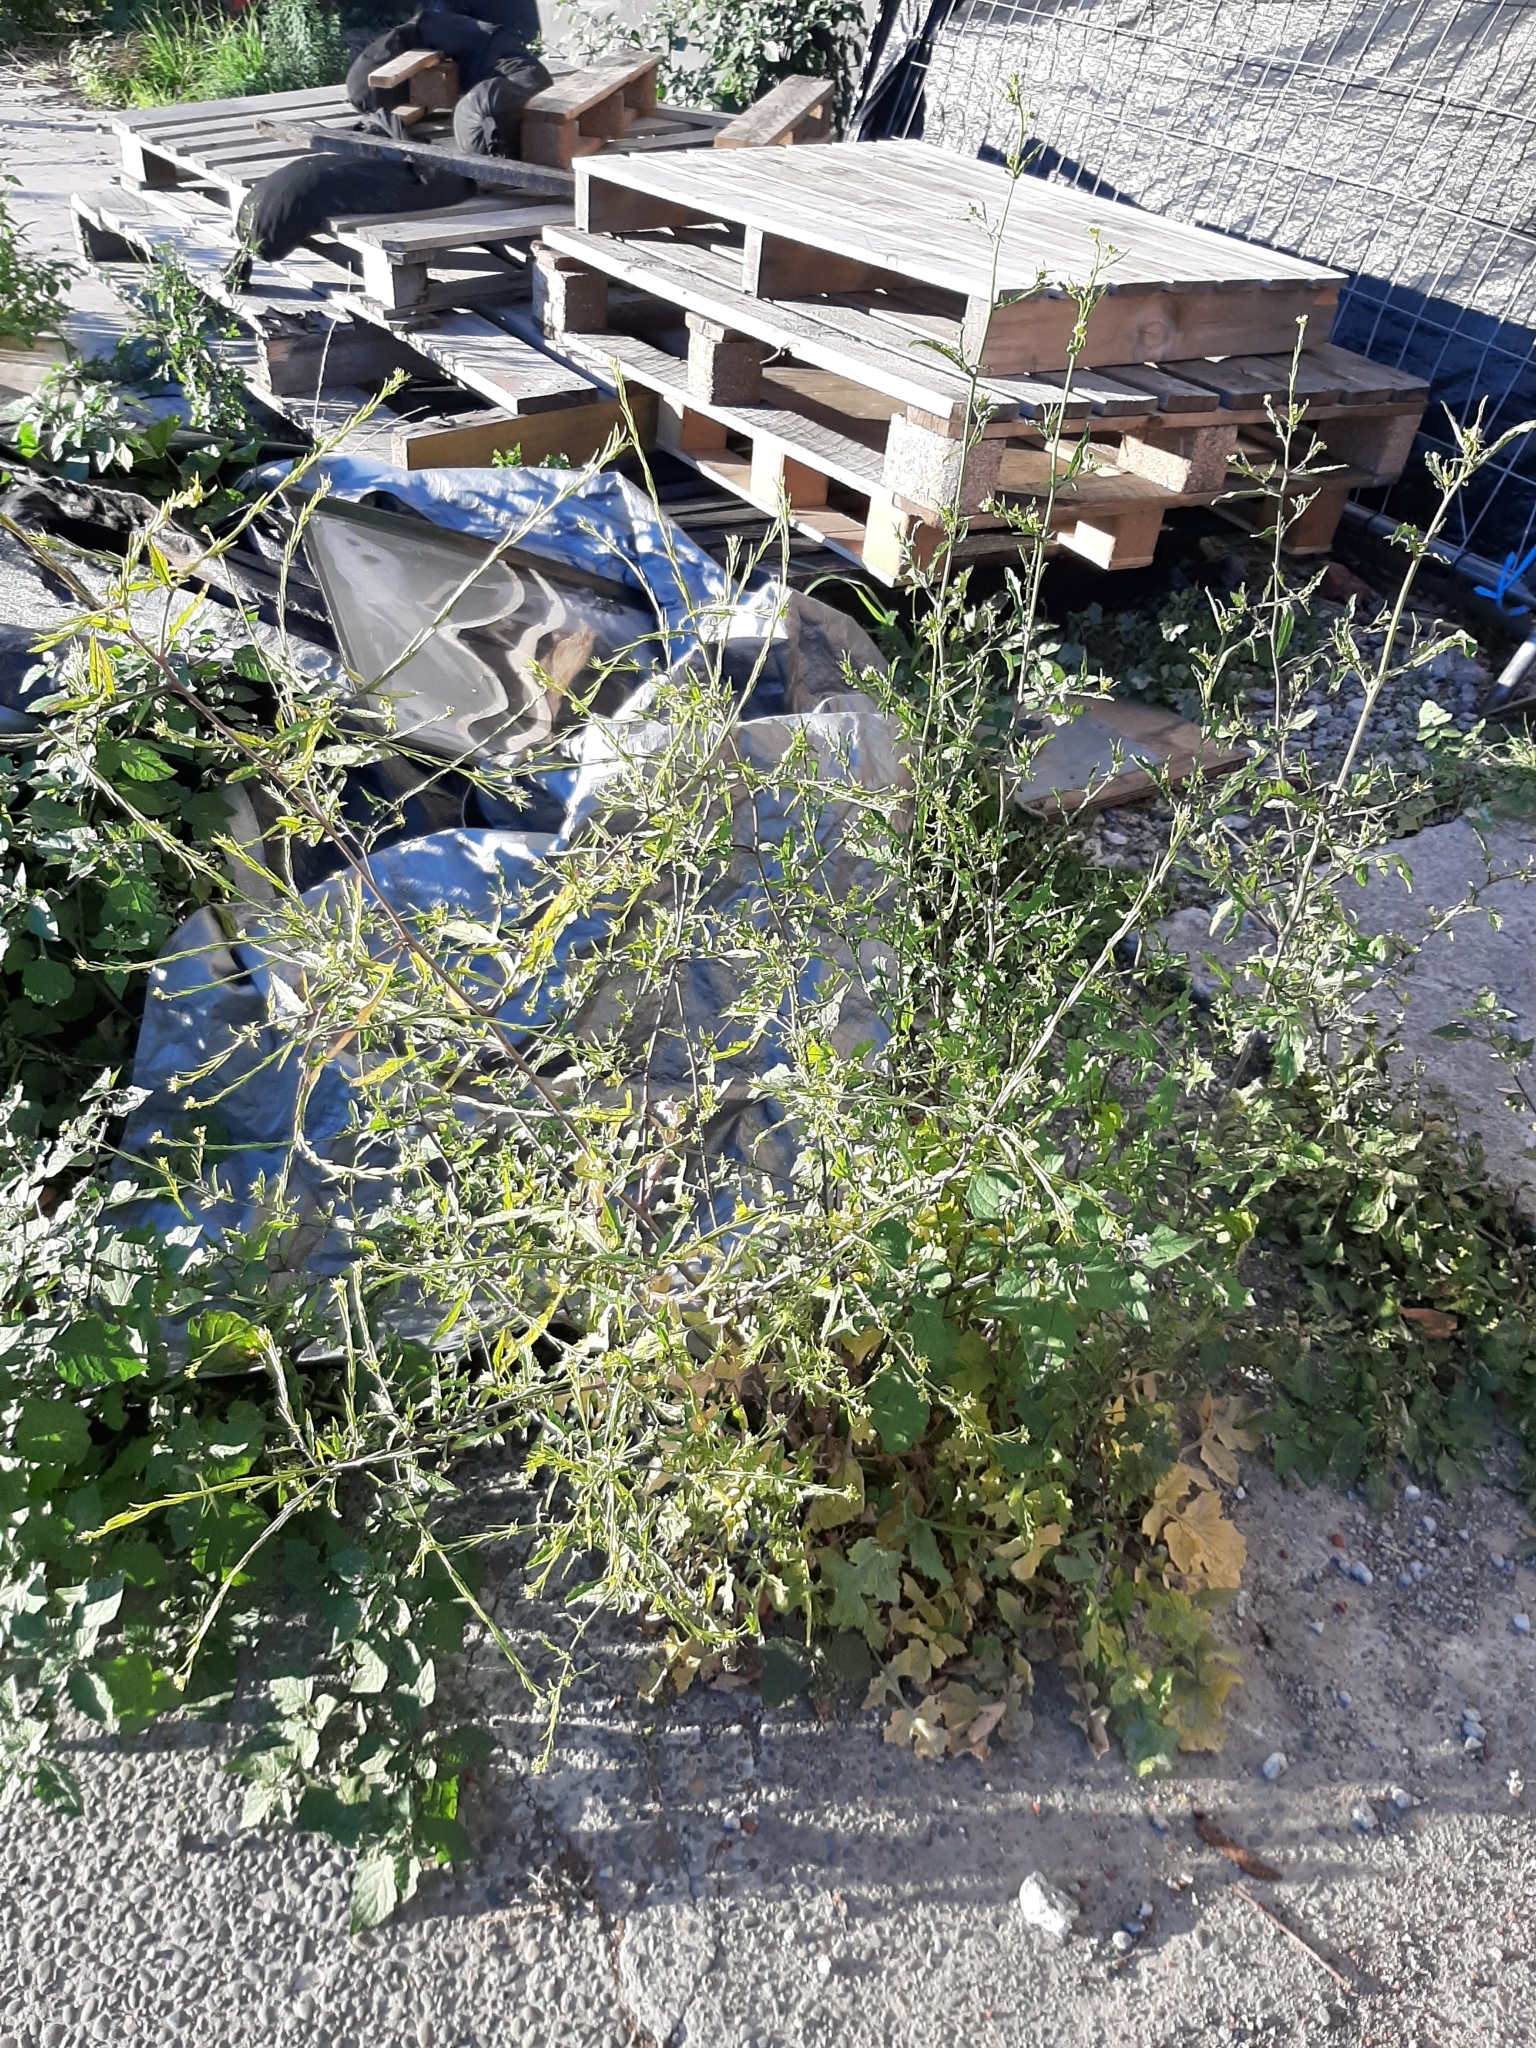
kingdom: Plantae
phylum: Tracheophyta
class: Magnoliopsida
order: Brassicales
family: Brassicaceae
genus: Sisymbrium
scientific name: Sisymbrium officinale
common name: Hedge mustard
